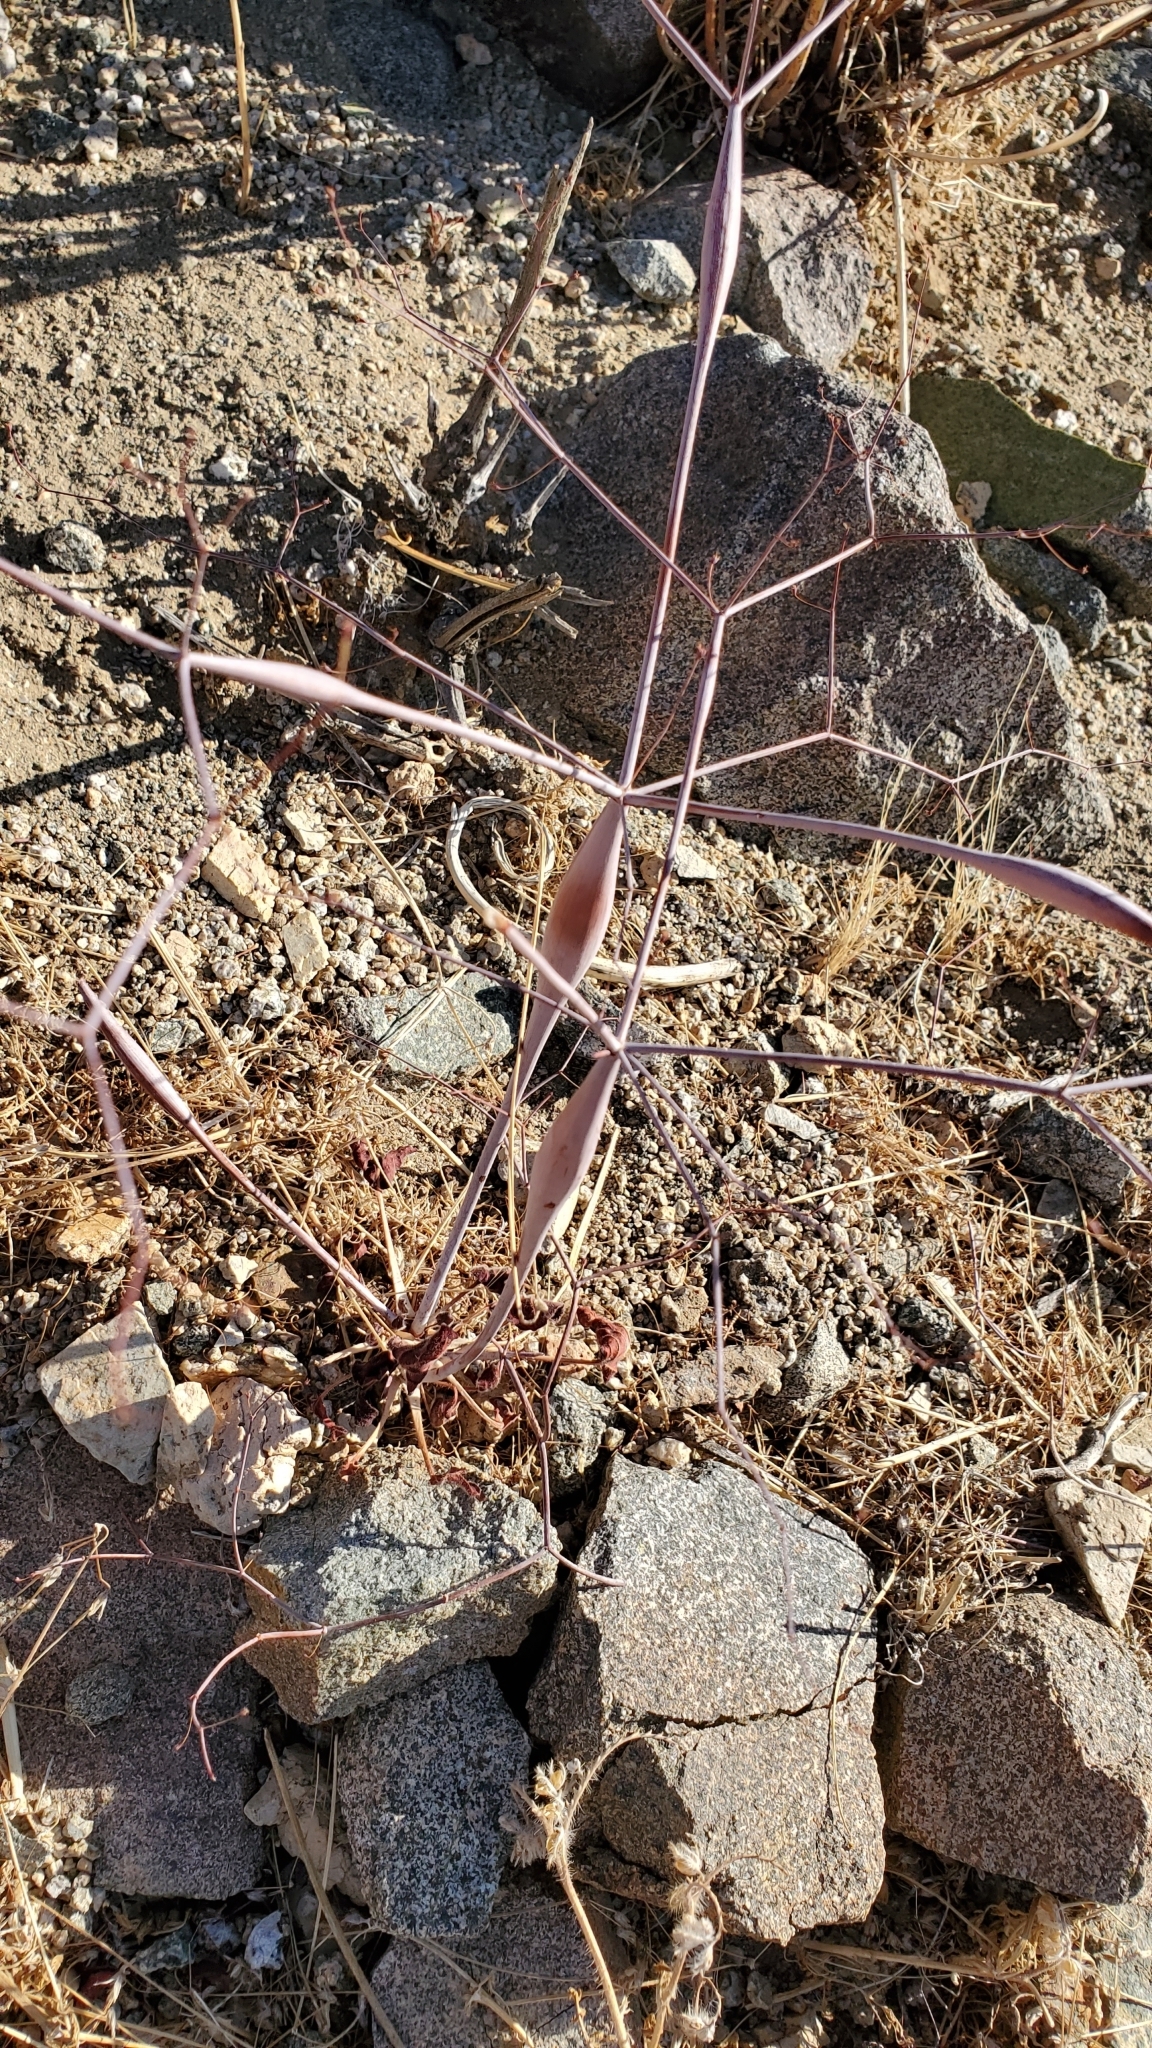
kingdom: Plantae
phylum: Tracheophyta
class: Magnoliopsida
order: Caryophyllales
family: Polygonaceae
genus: Eriogonum
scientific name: Eriogonum inflatum
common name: Desert trumpet
